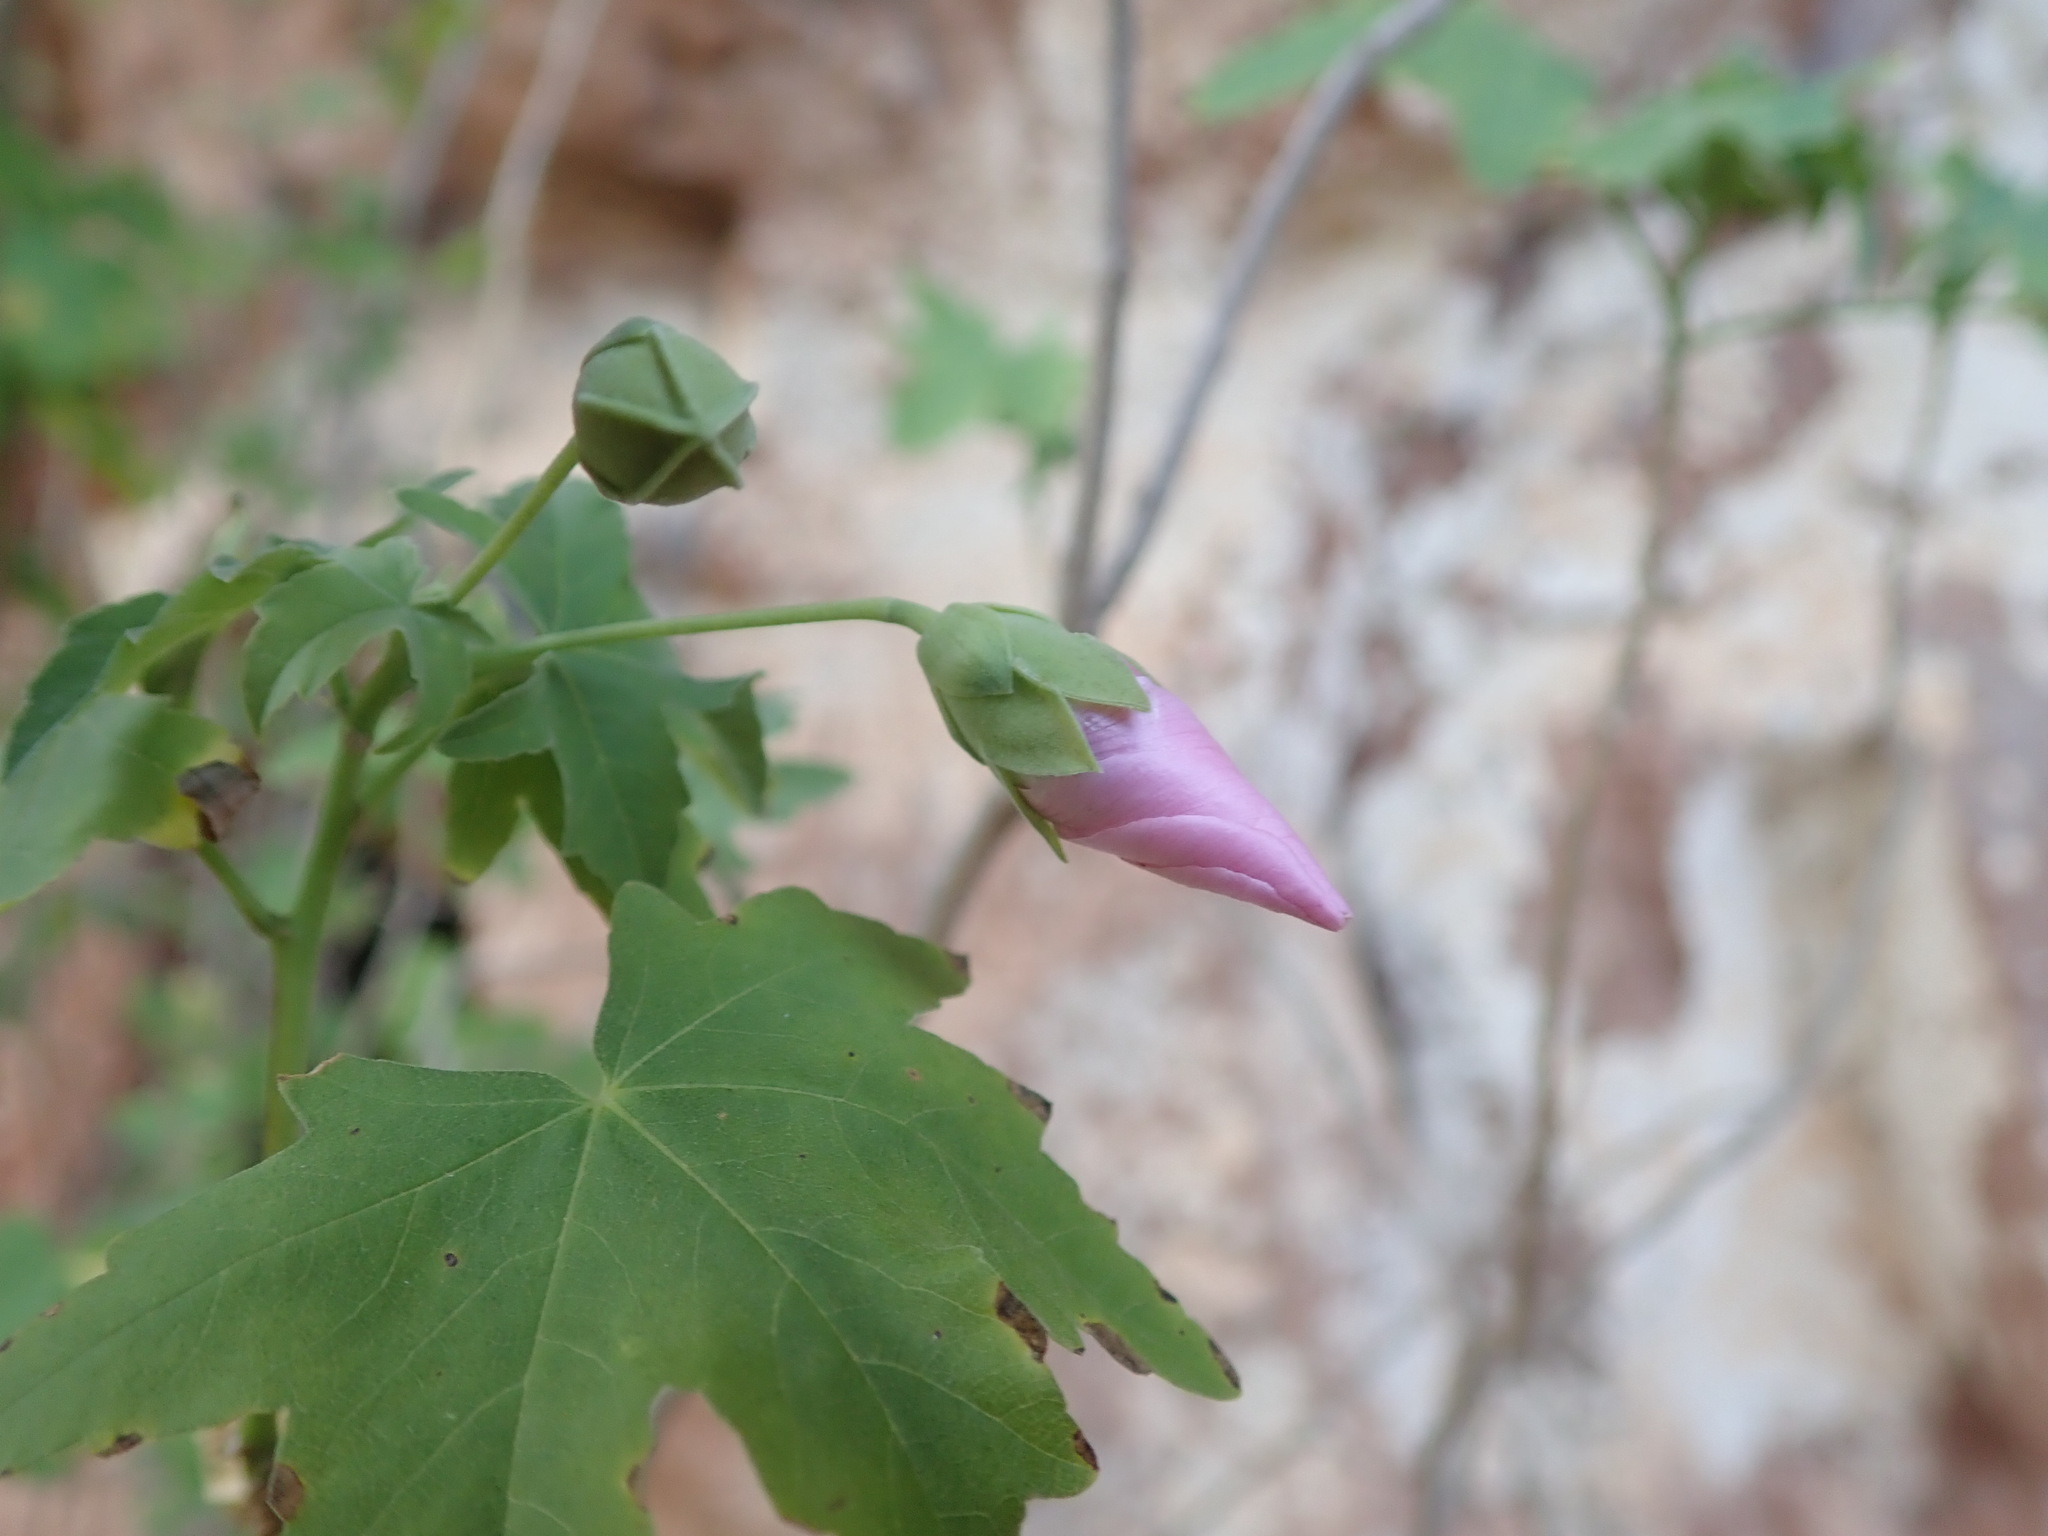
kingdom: Plantae
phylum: Tracheophyta
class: Magnoliopsida
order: Malvales
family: Malvaceae
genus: Malva
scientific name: Malva acerifolia
